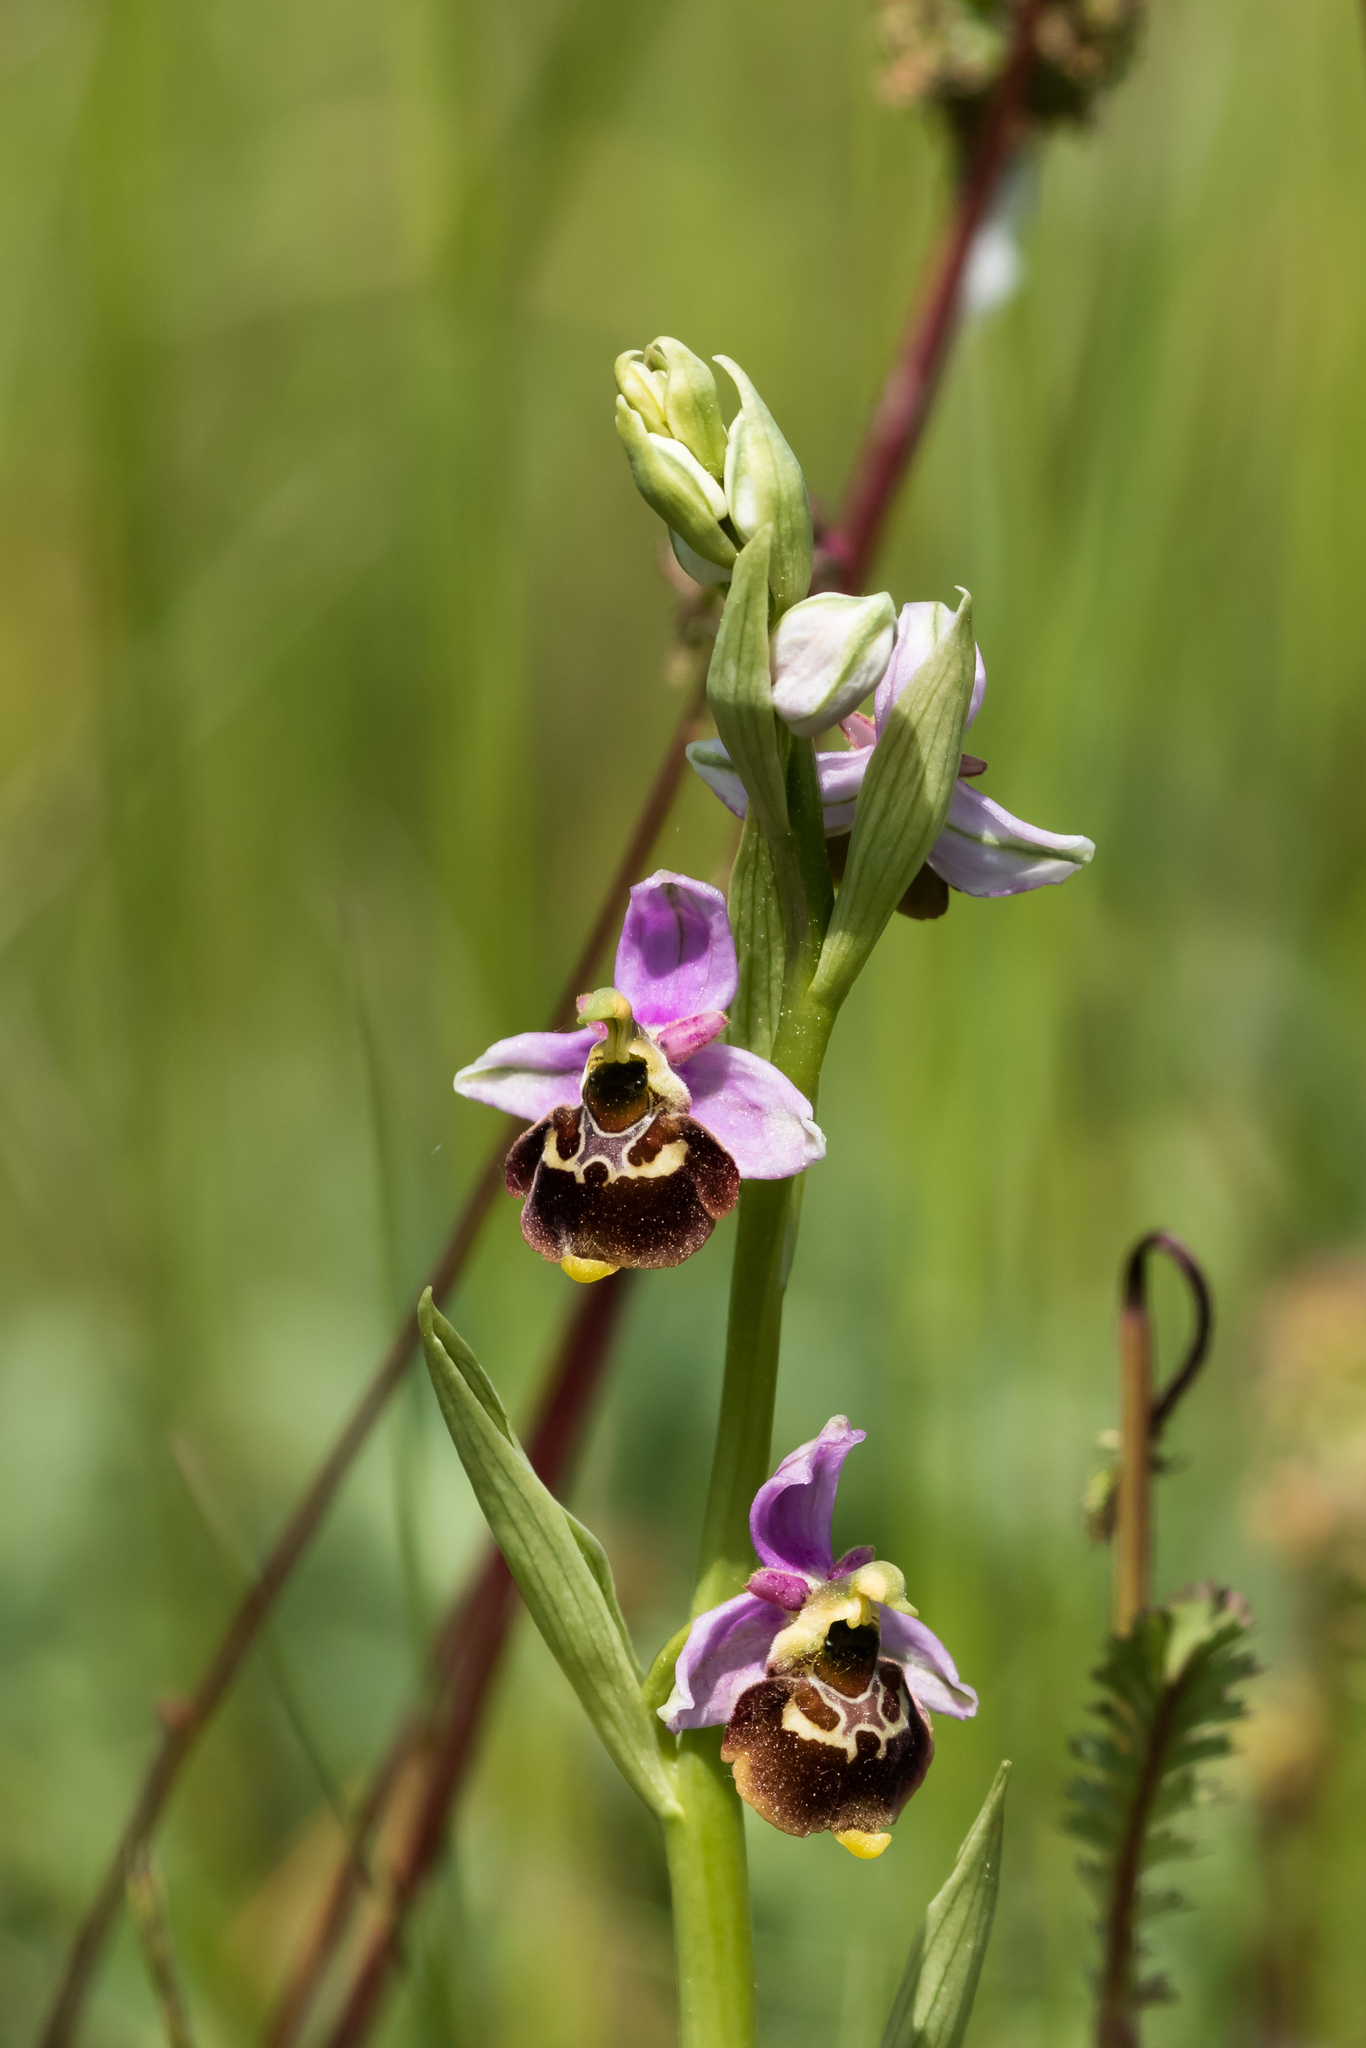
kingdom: Plantae
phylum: Tracheophyta
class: Liliopsida
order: Asparagales
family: Orchidaceae
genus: Ophrys
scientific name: Ophrys holosericea
